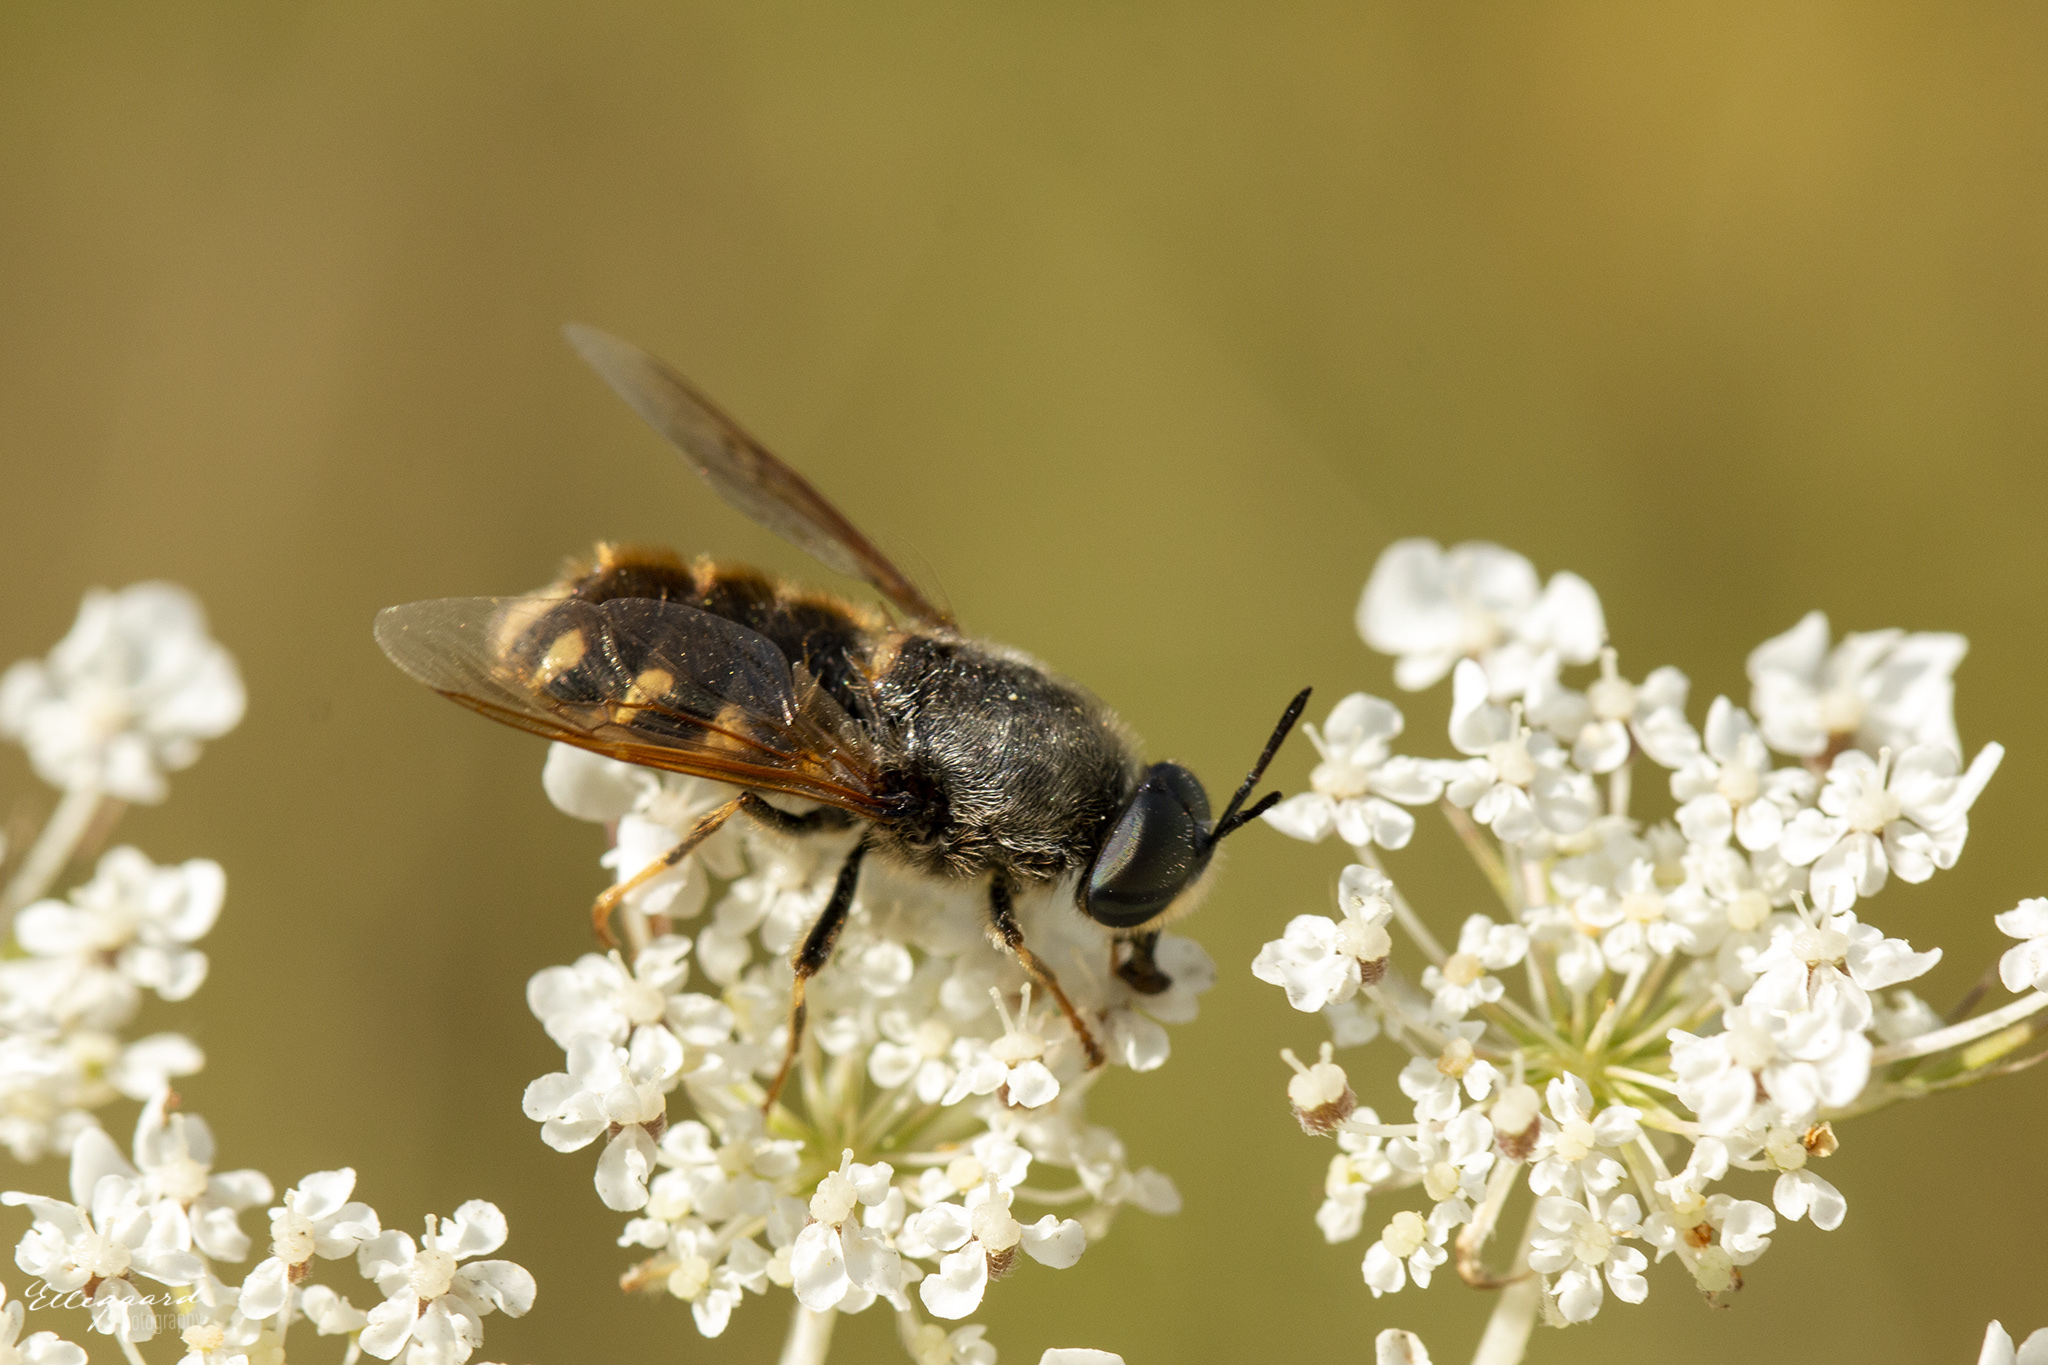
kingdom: Animalia
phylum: Arthropoda
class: Insecta
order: Diptera
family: Stratiomyidae
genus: Stratiomys
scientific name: Stratiomys singularior
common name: Flecked general
